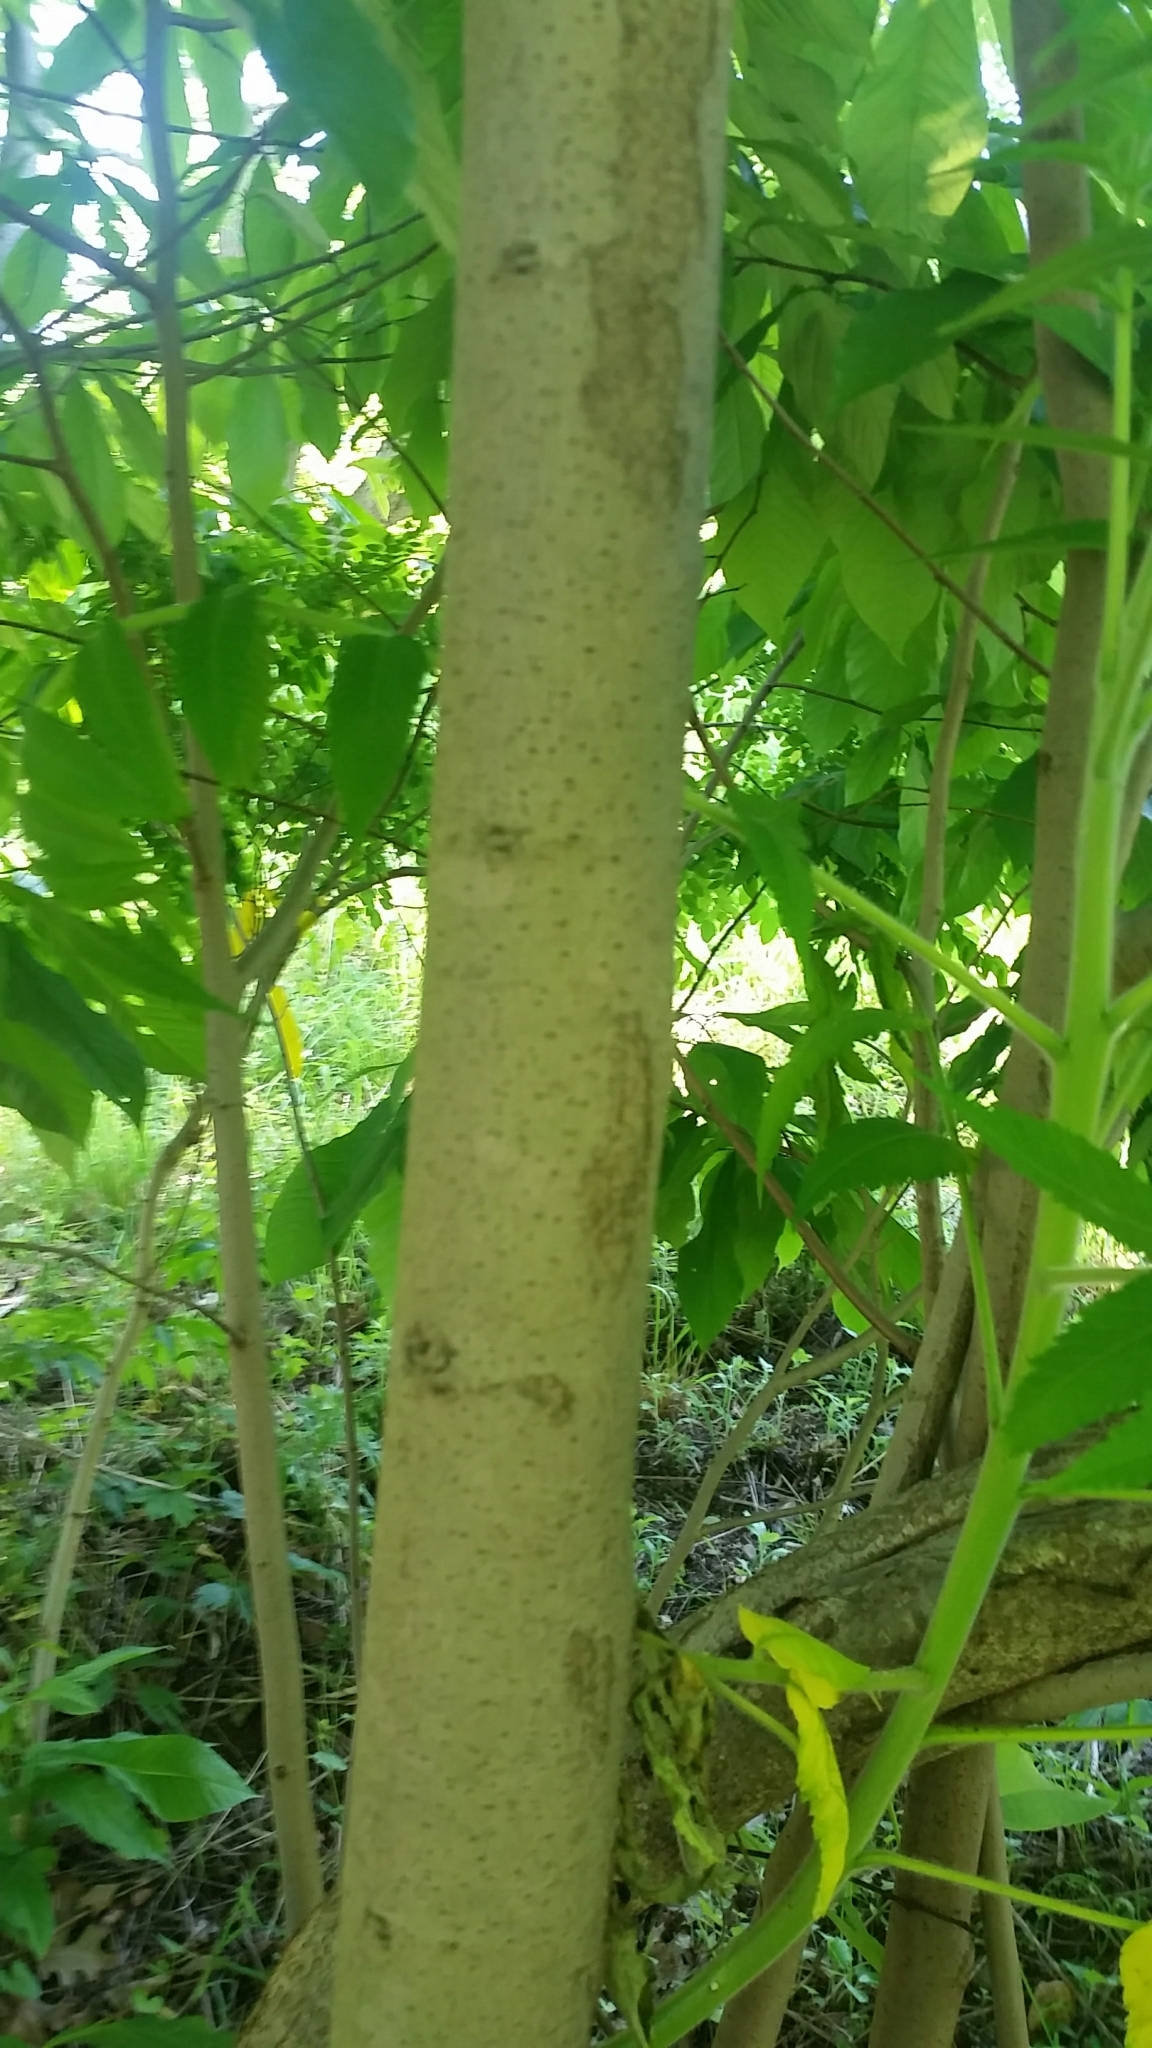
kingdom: Plantae
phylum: Tracheophyta
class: Magnoliopsida
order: Magnoliales
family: Annonaceae
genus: Asimina
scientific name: Asimina triloba
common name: Dog-banana
